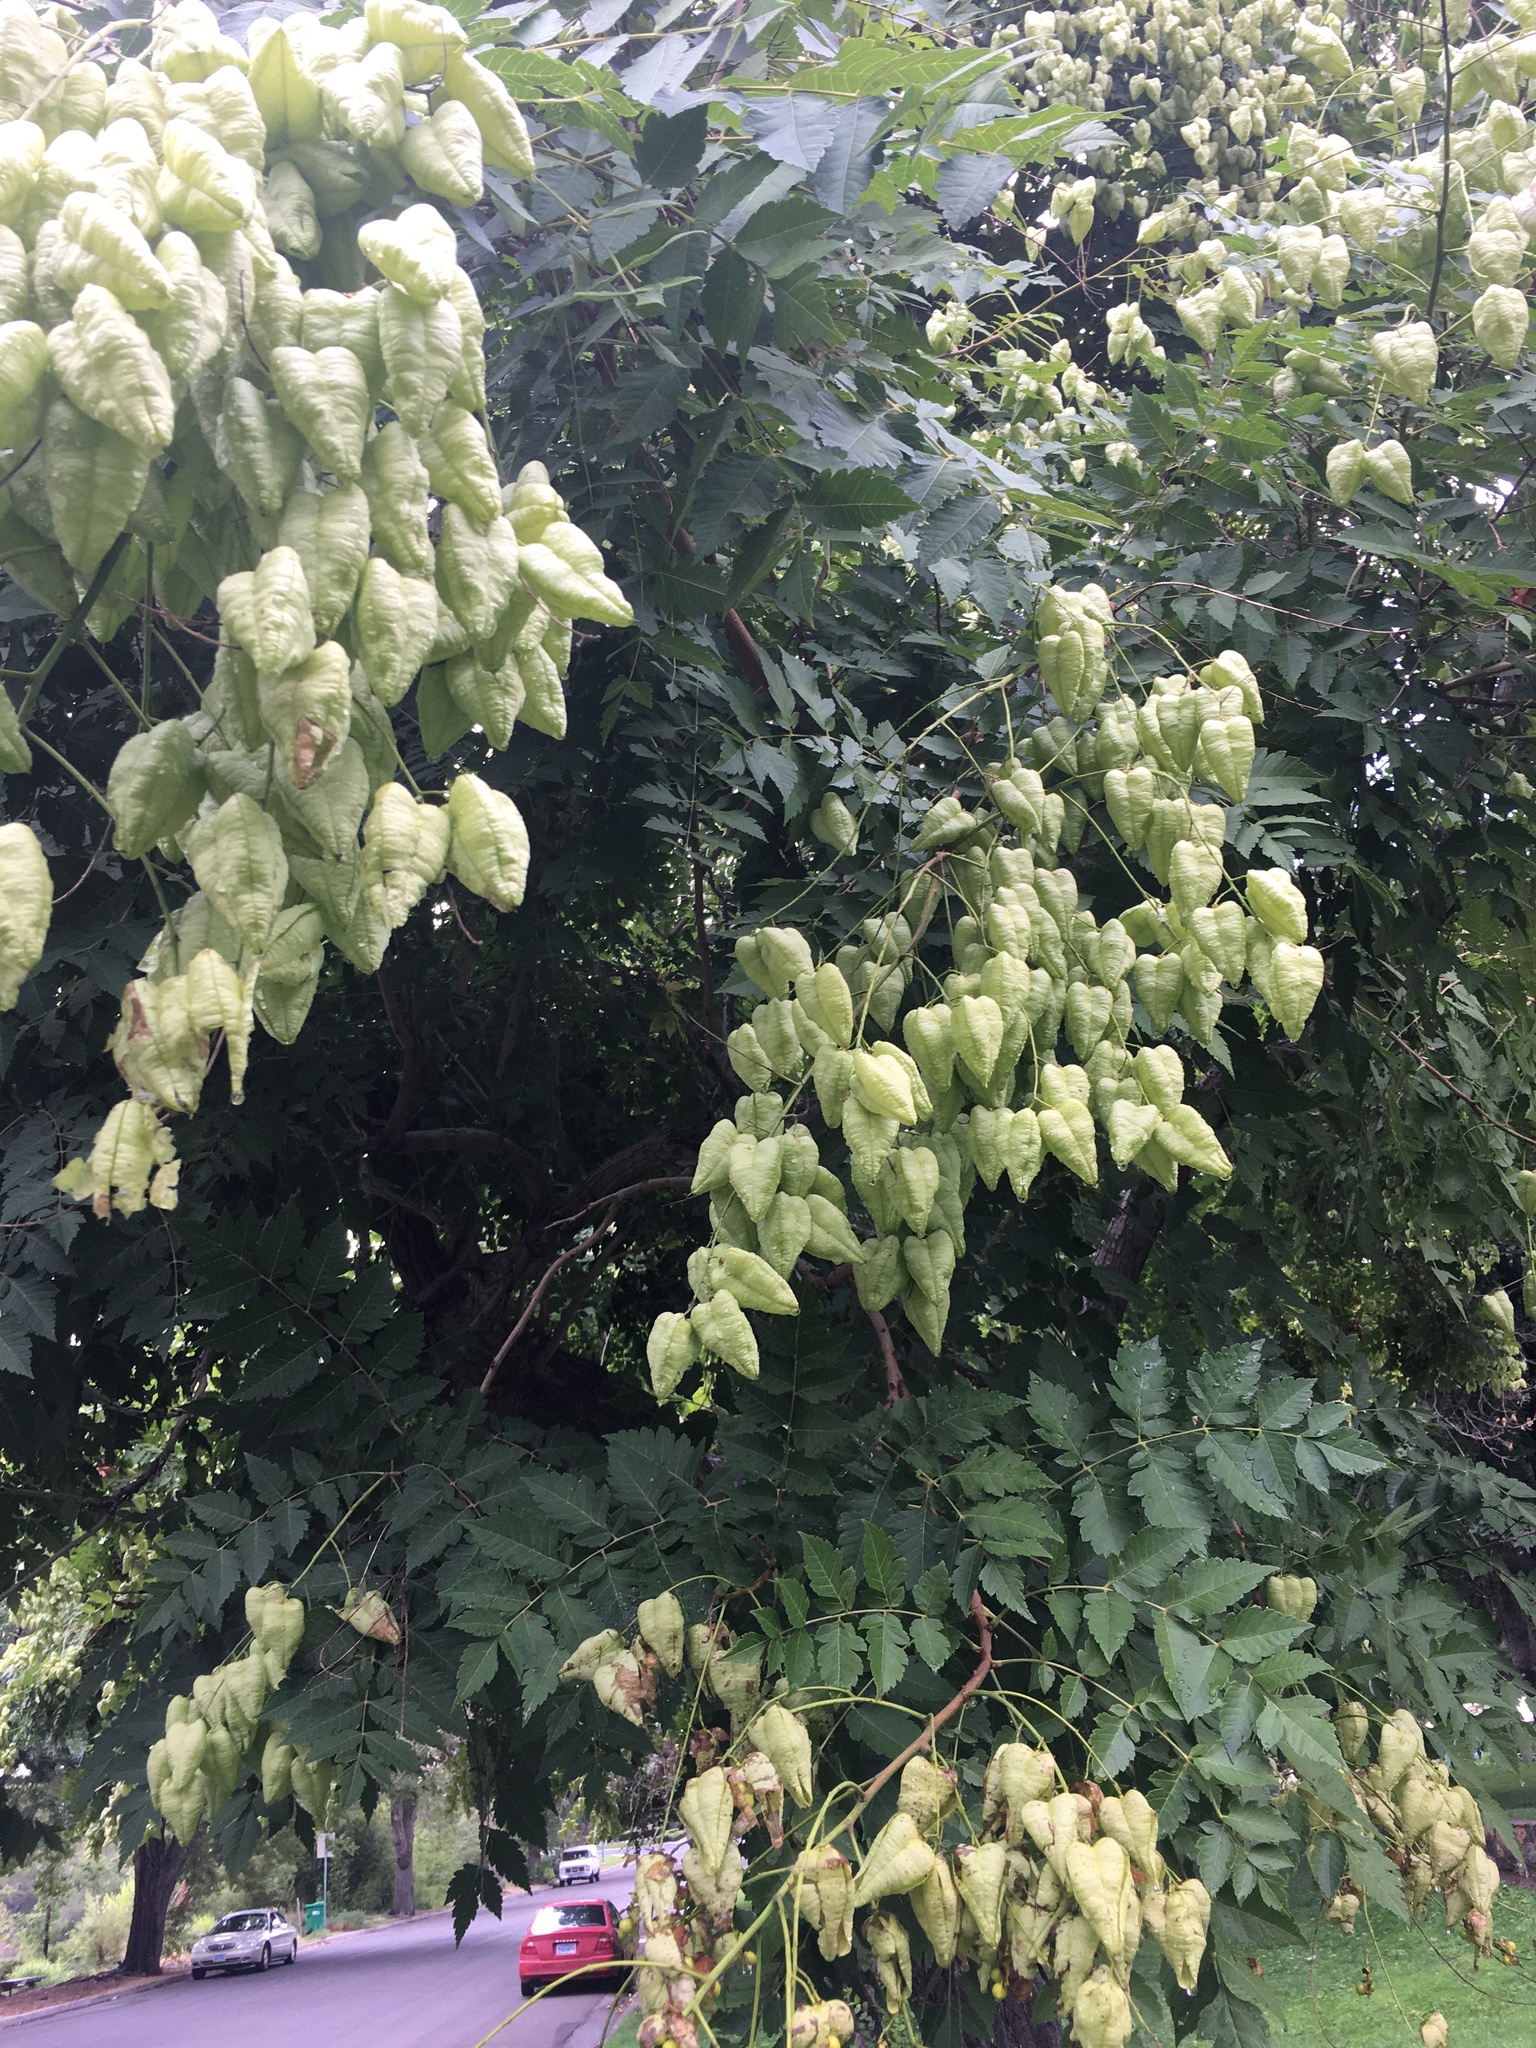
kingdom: Plantae
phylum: Tracheophyta
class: Magnoliopsida
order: Sapindales
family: Sapindaceae
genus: Koelreuteria
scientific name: Koelreuteria paniculata
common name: Pride-of-india
